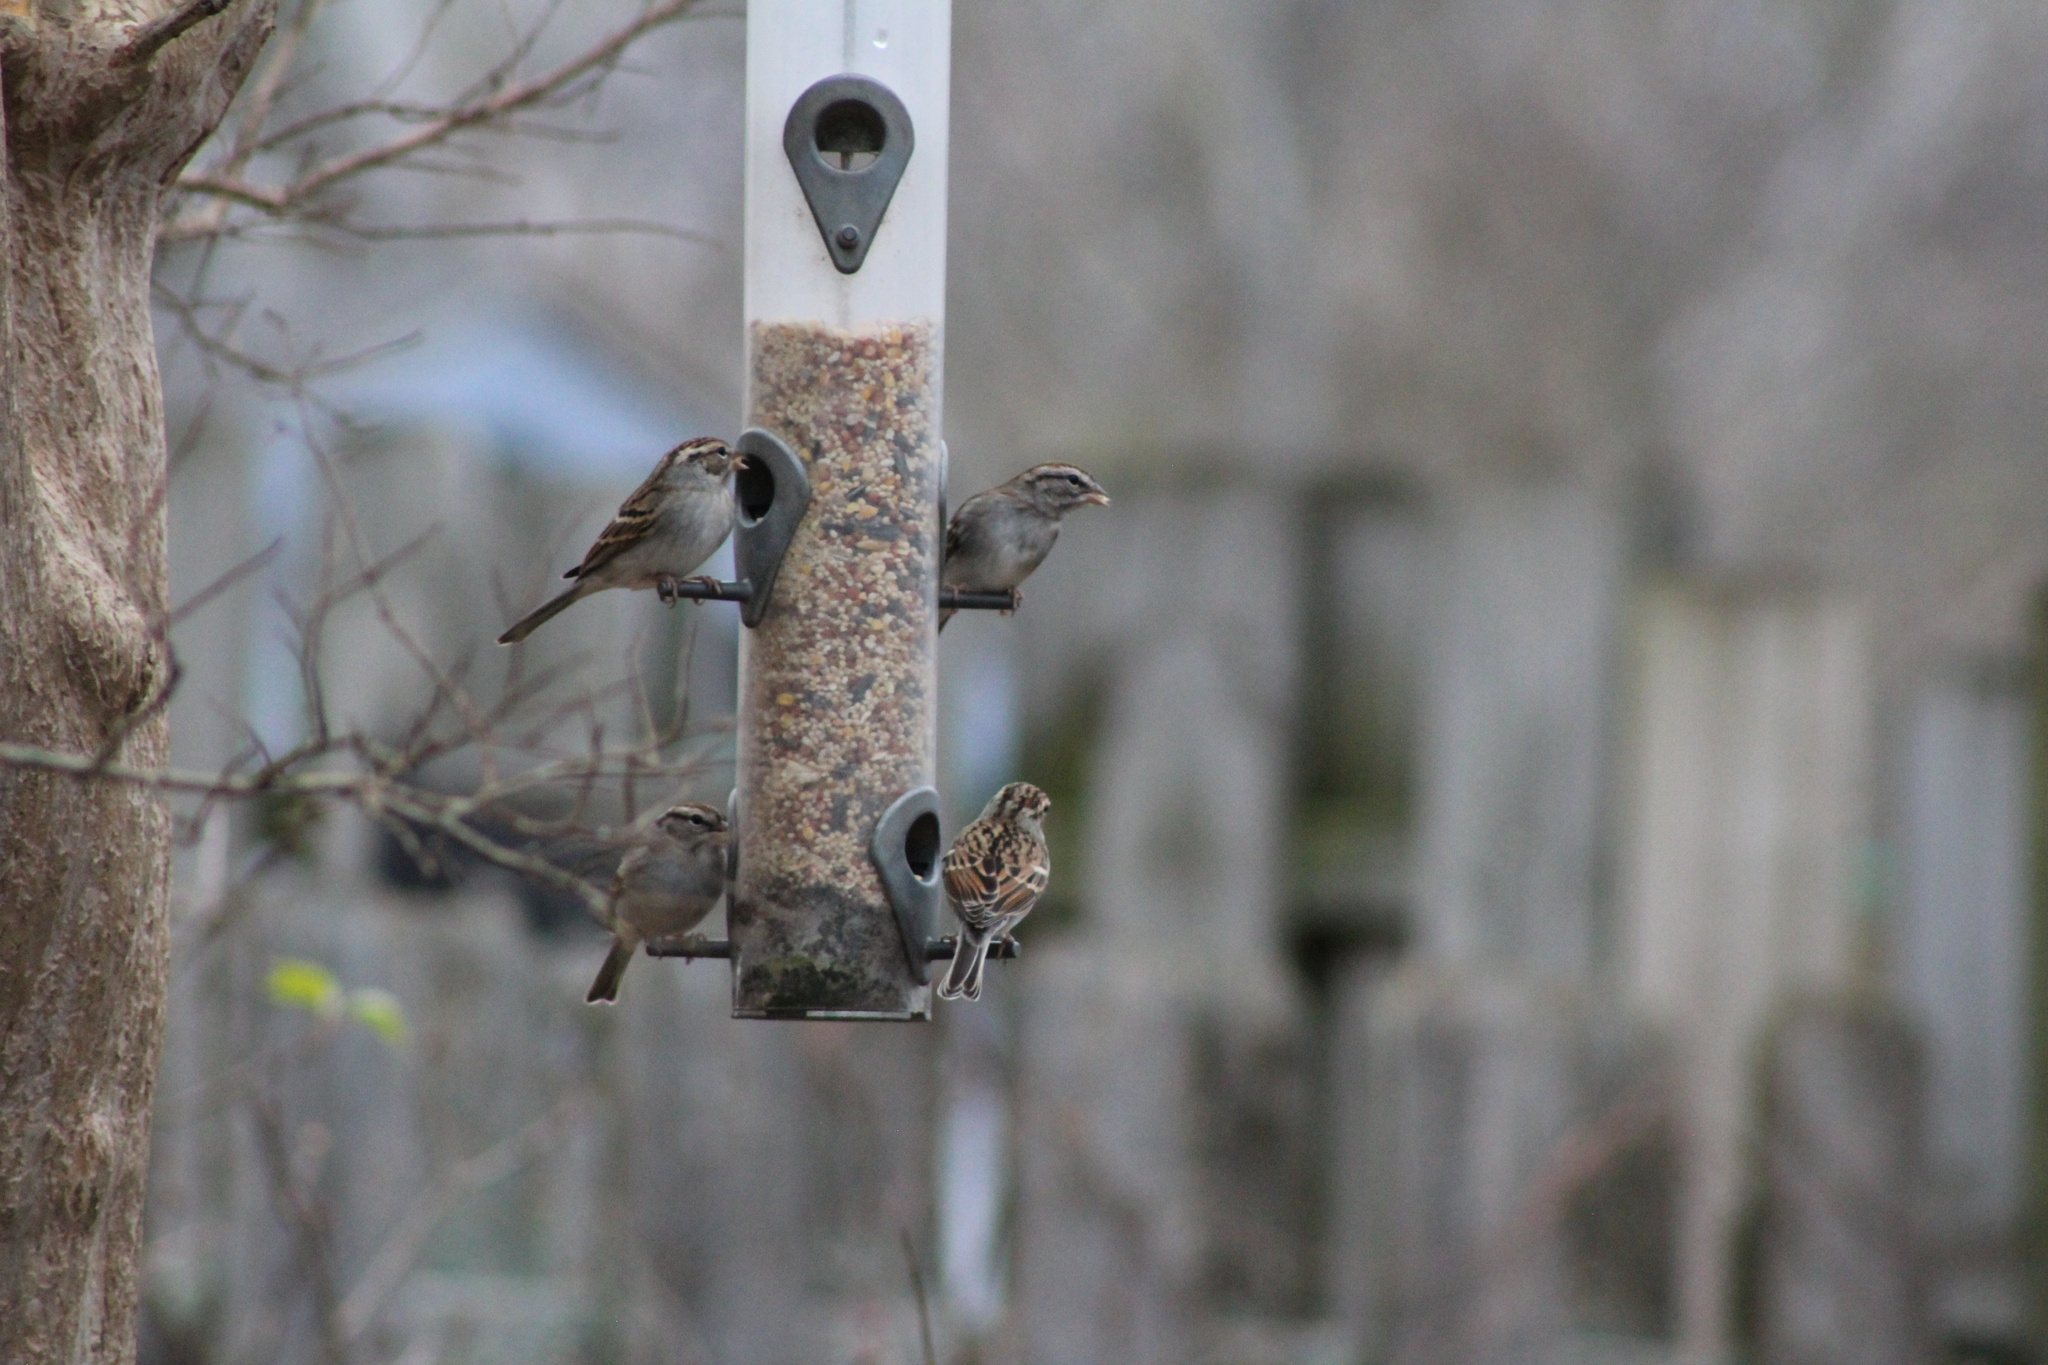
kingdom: Animalia
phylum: Chordata
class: Aves
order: Passeriformes
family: Passerellidae
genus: Spizella
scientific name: Spizella passerina
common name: Chipping sparrow
